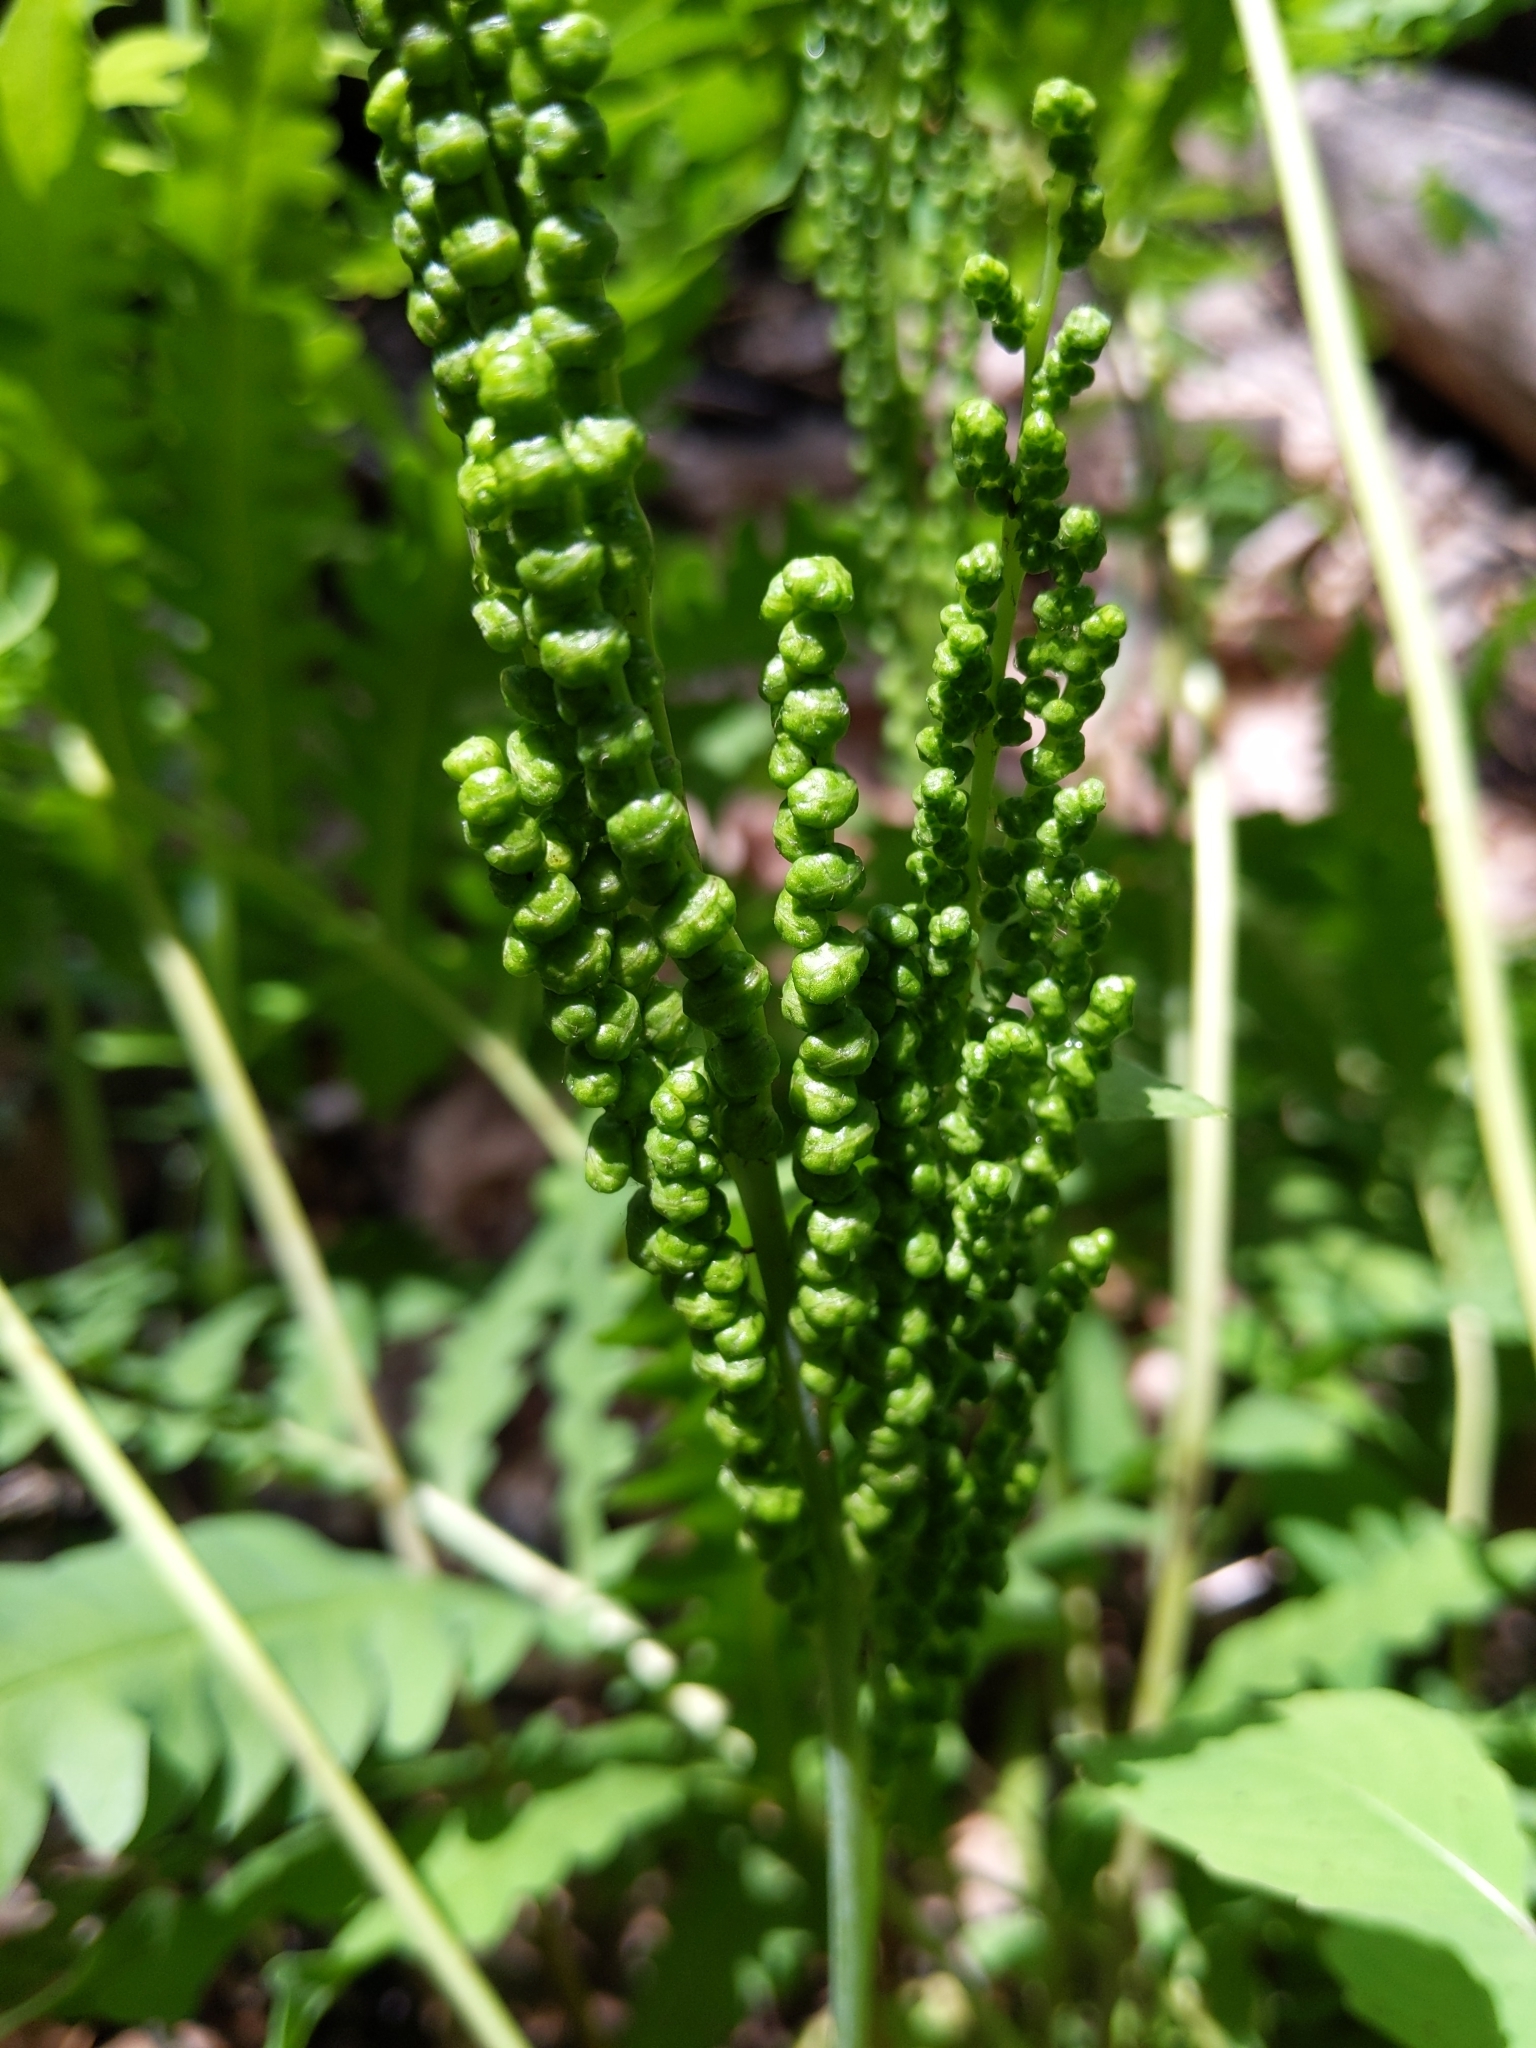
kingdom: Plantae
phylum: Tracheophyta
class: Polypodiopsida
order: Polypodiales
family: Onocleaceae
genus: Onoclea
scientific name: Onoclea sensibilis
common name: Sensitive fern
